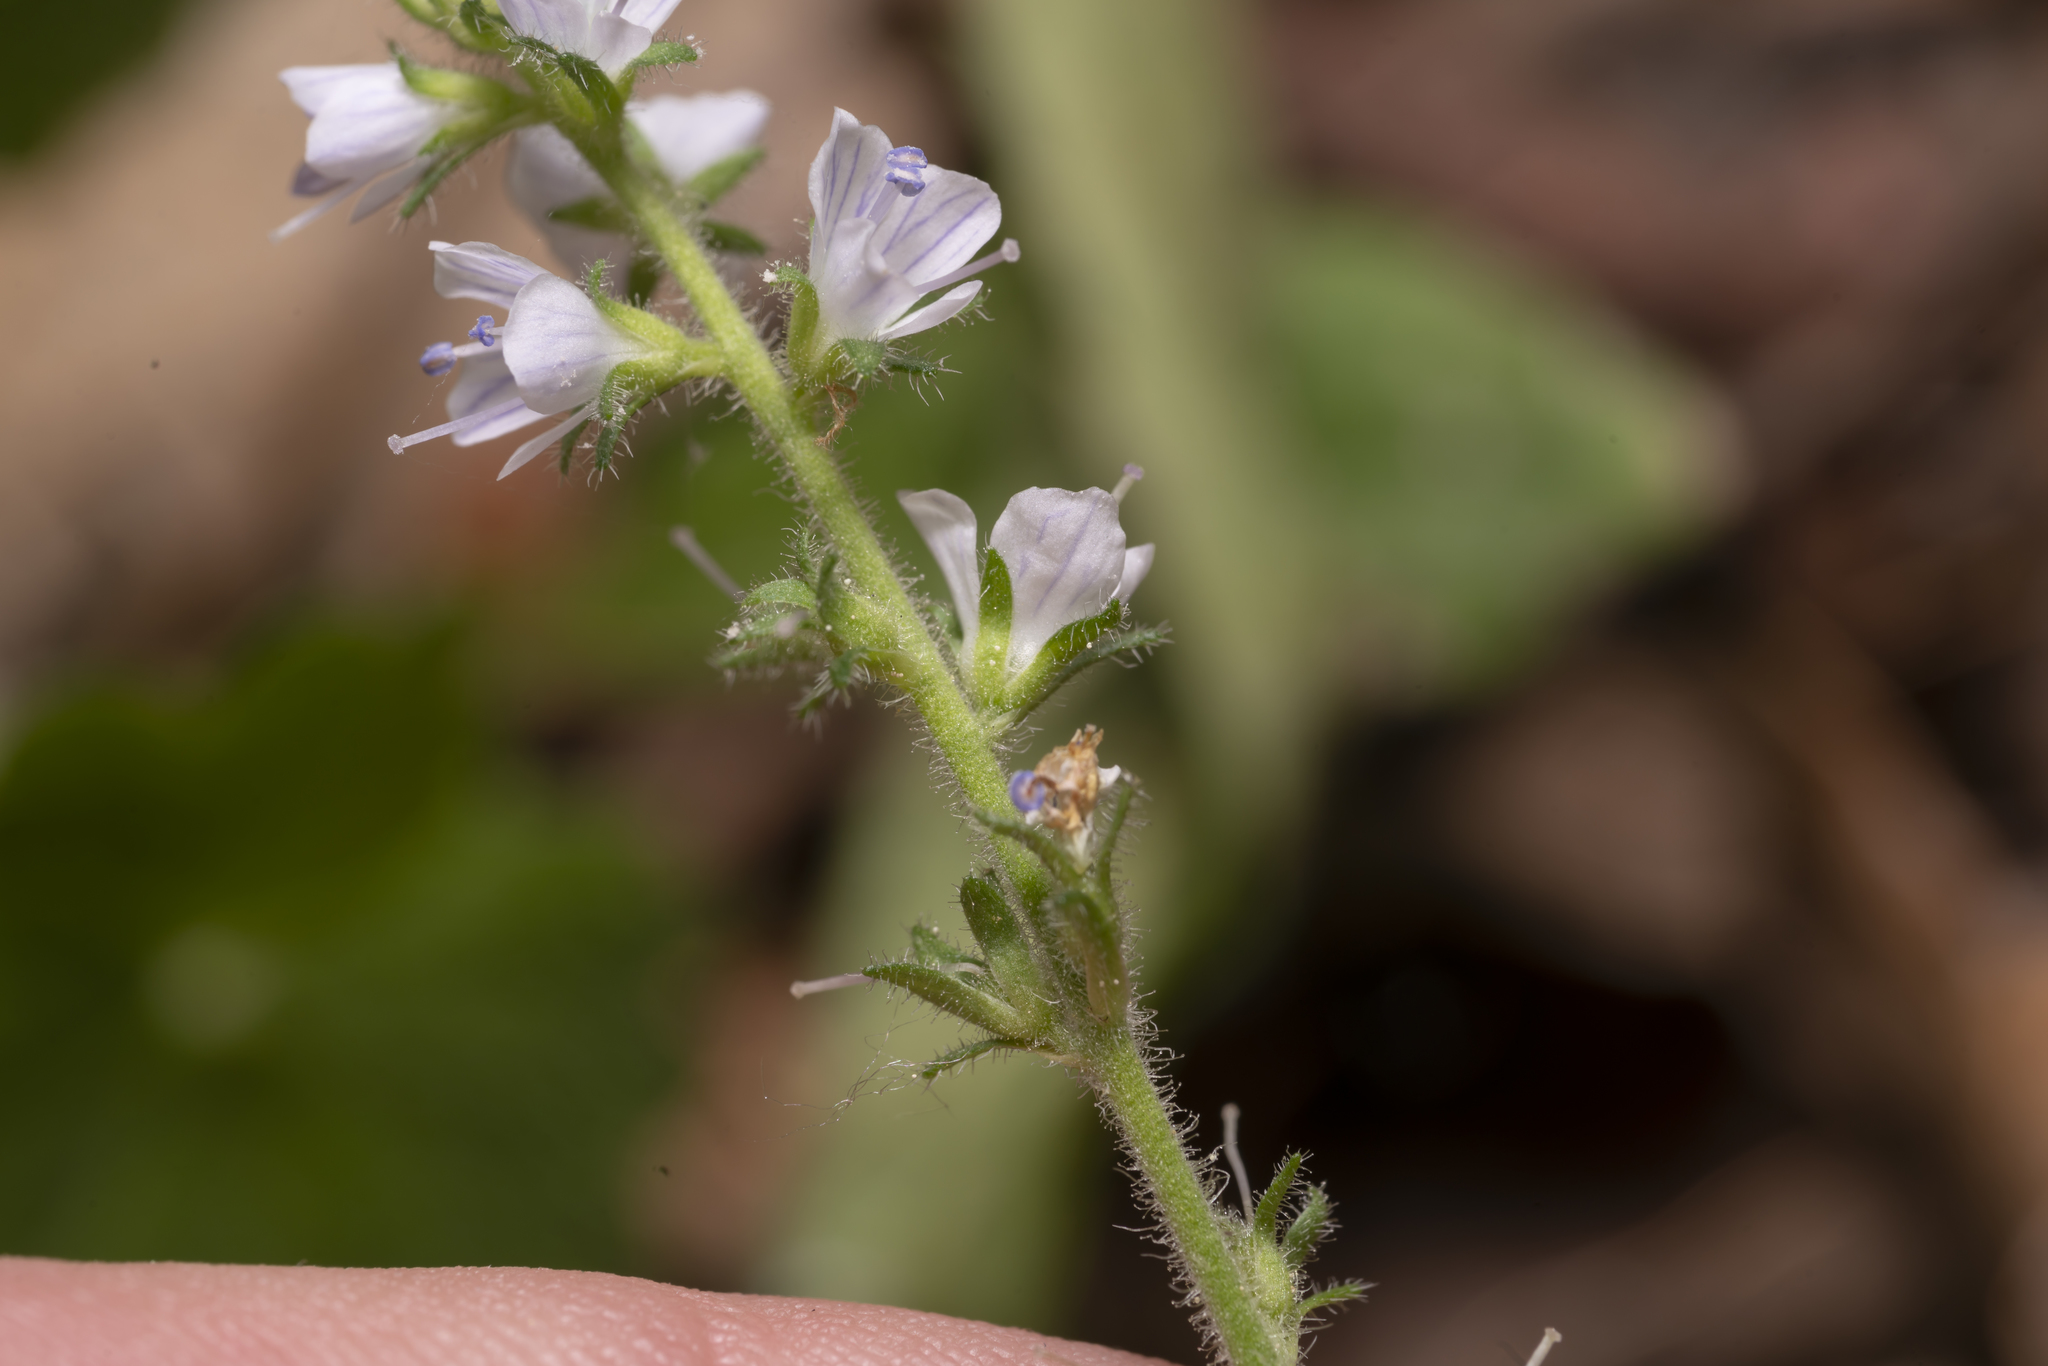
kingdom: Plantae
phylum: Tracheophyta
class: Magnoliopsida
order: Lamiales
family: Plantaginaceae
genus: Veronica
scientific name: Veronica officinalis
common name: Common speedwell
